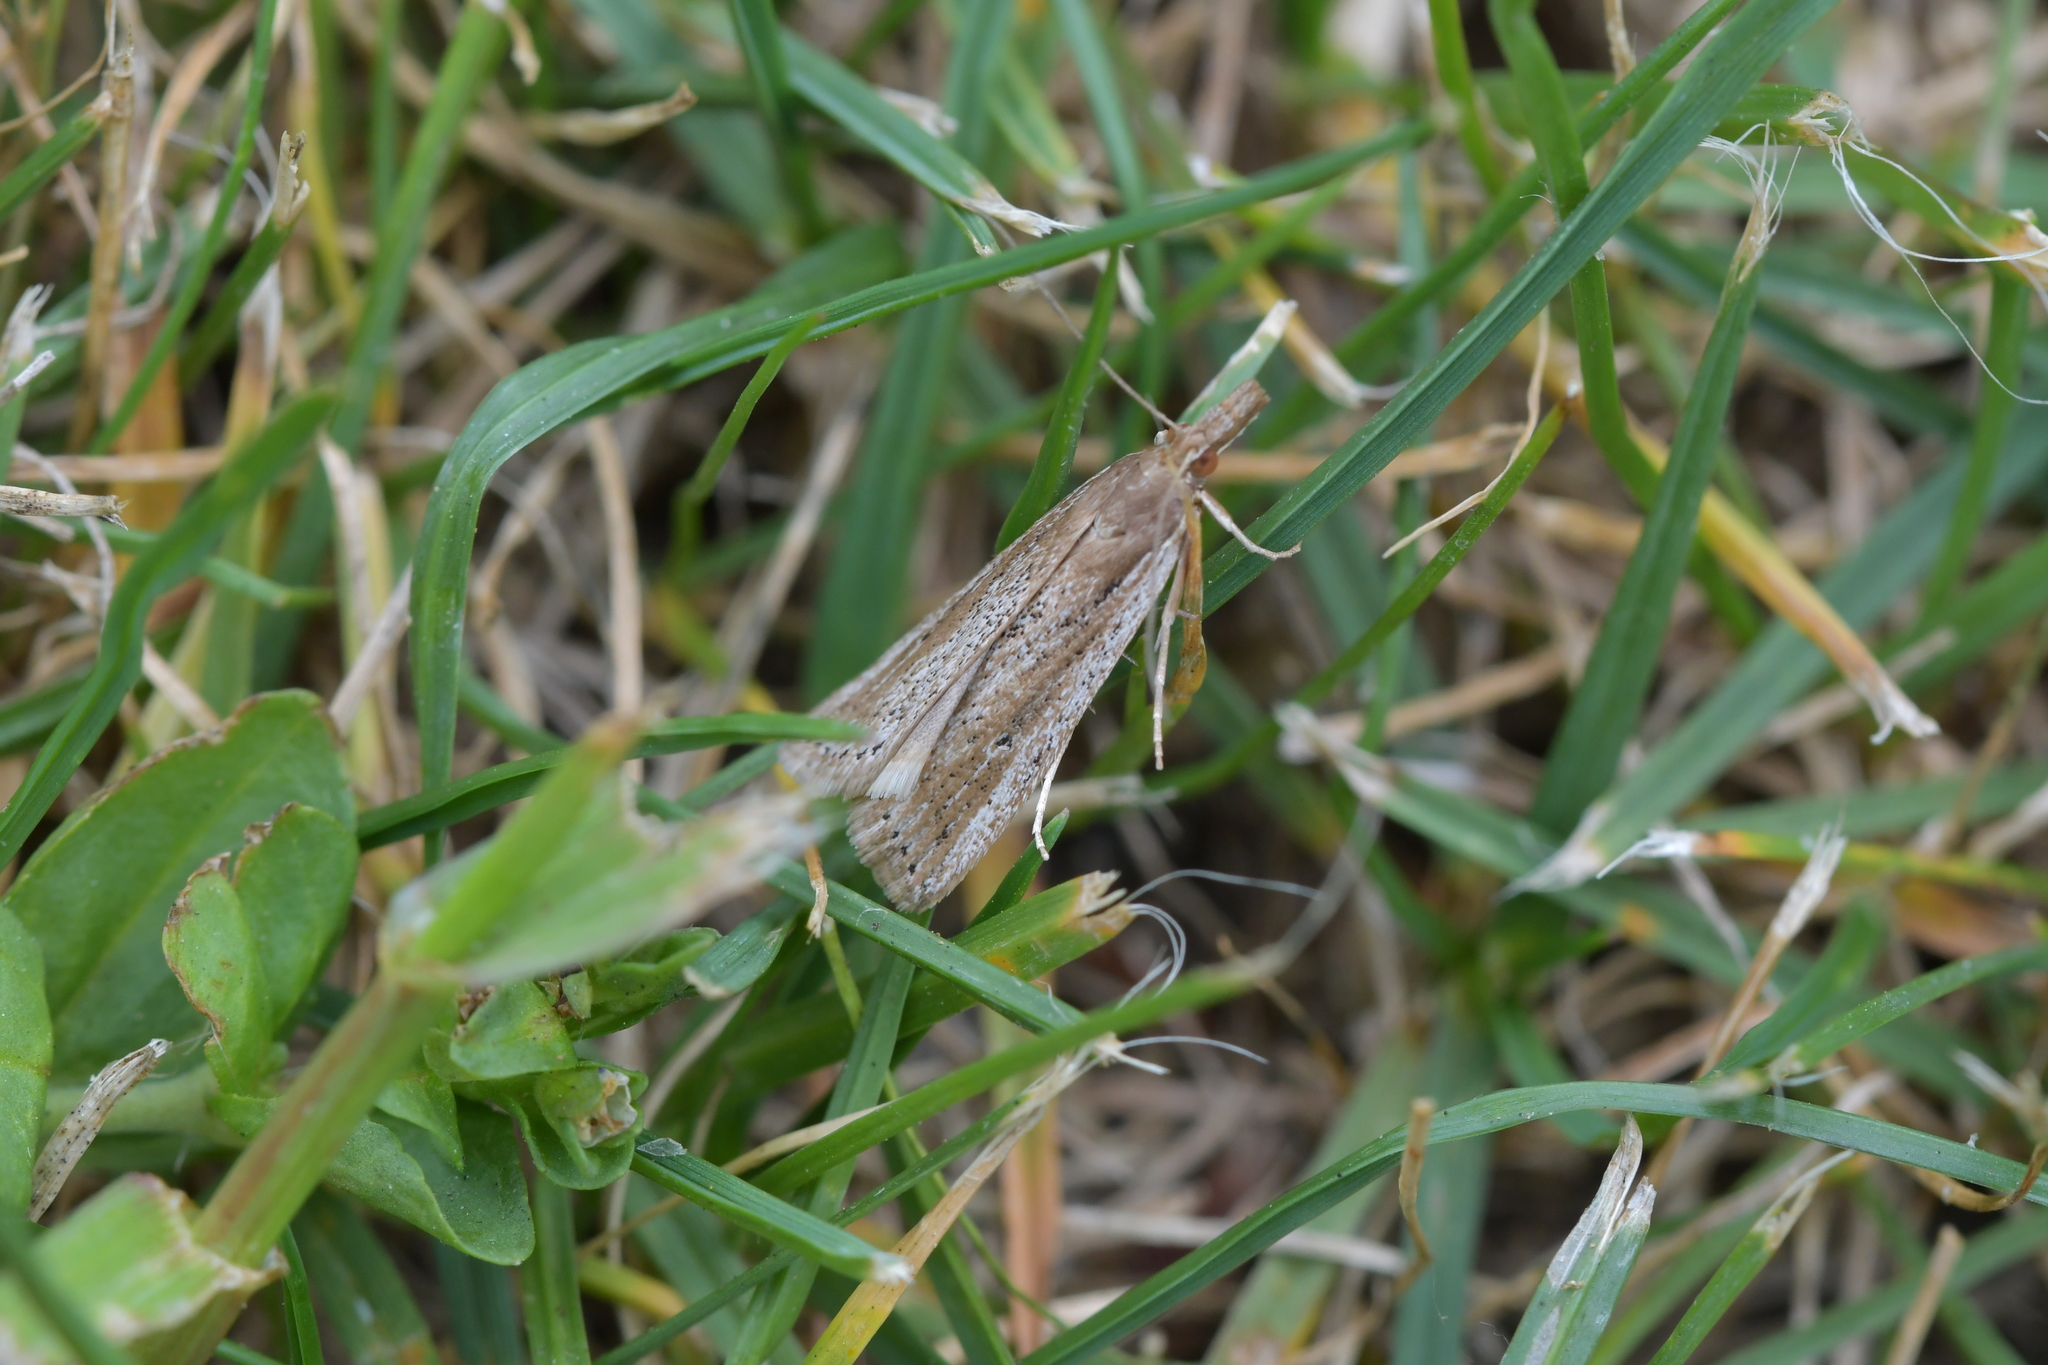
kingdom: Animalia
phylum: Arthropoda
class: Insecta
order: Lepidoptera
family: Crambidae
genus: Eudonia
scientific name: Eudonia sabulosella
